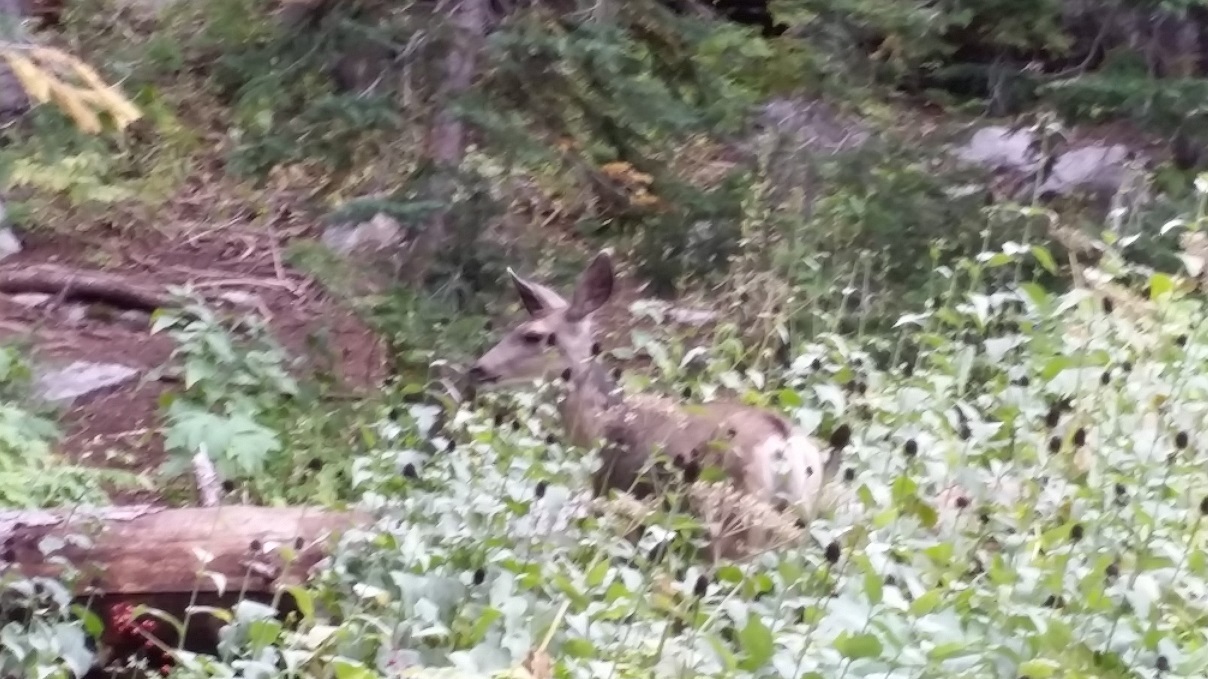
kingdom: Animalia
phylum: Chordata
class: Mammalia
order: Artiodactyla
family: Cervidae
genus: Odocoileus
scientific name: Odocoileus hemionus
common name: Mule deer
